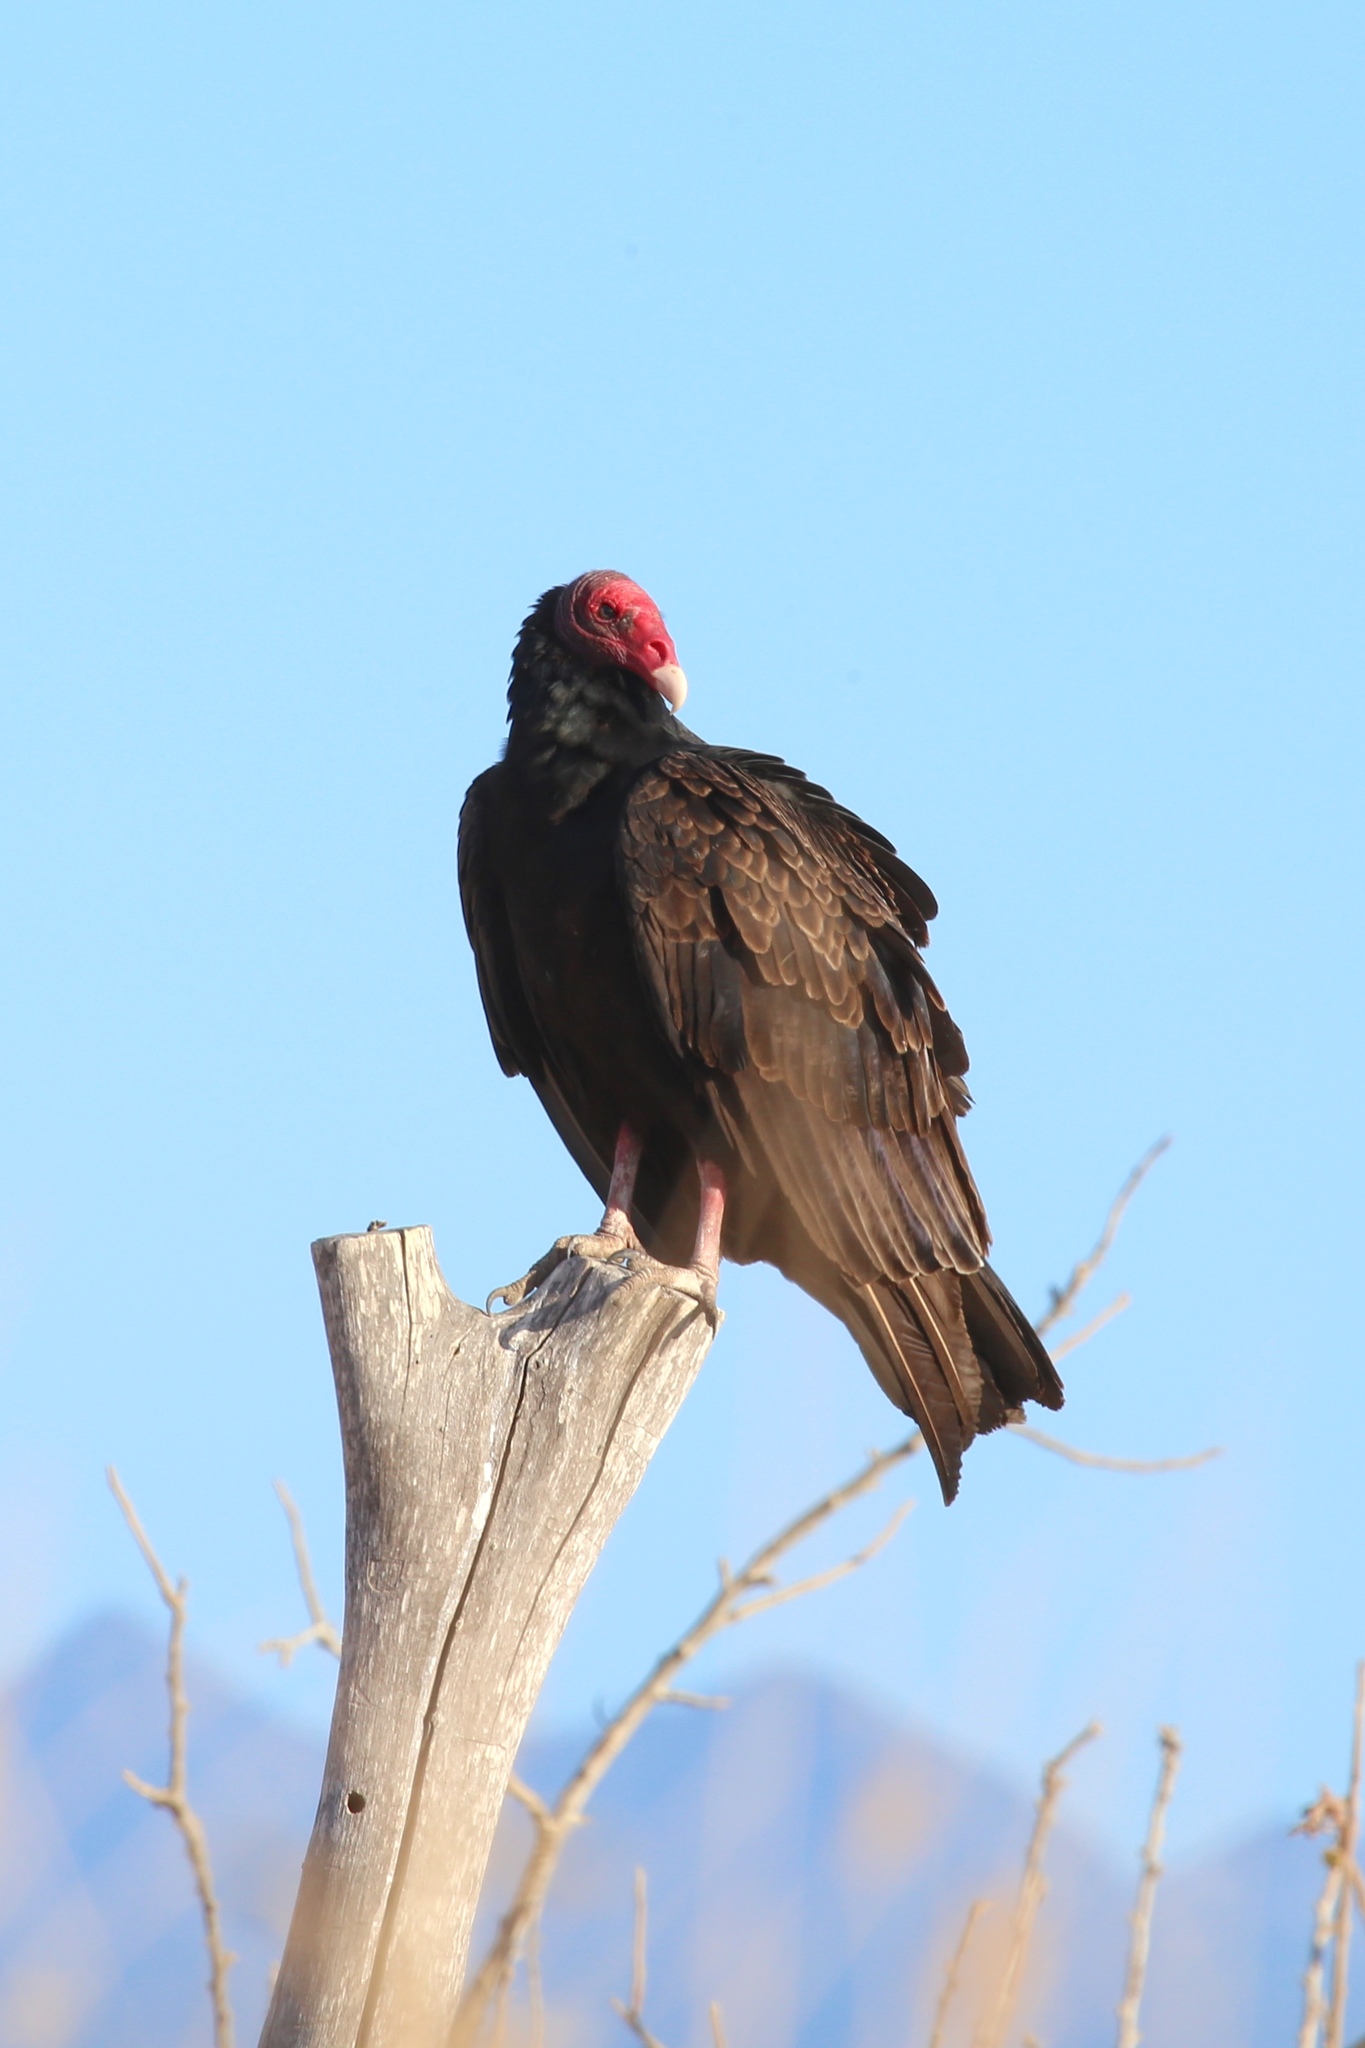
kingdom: Animalia
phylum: Chordata
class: Aves
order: Accipitriformes
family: Cathartidae
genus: Cathartes
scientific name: Cathartes aura
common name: Turkey vulture
